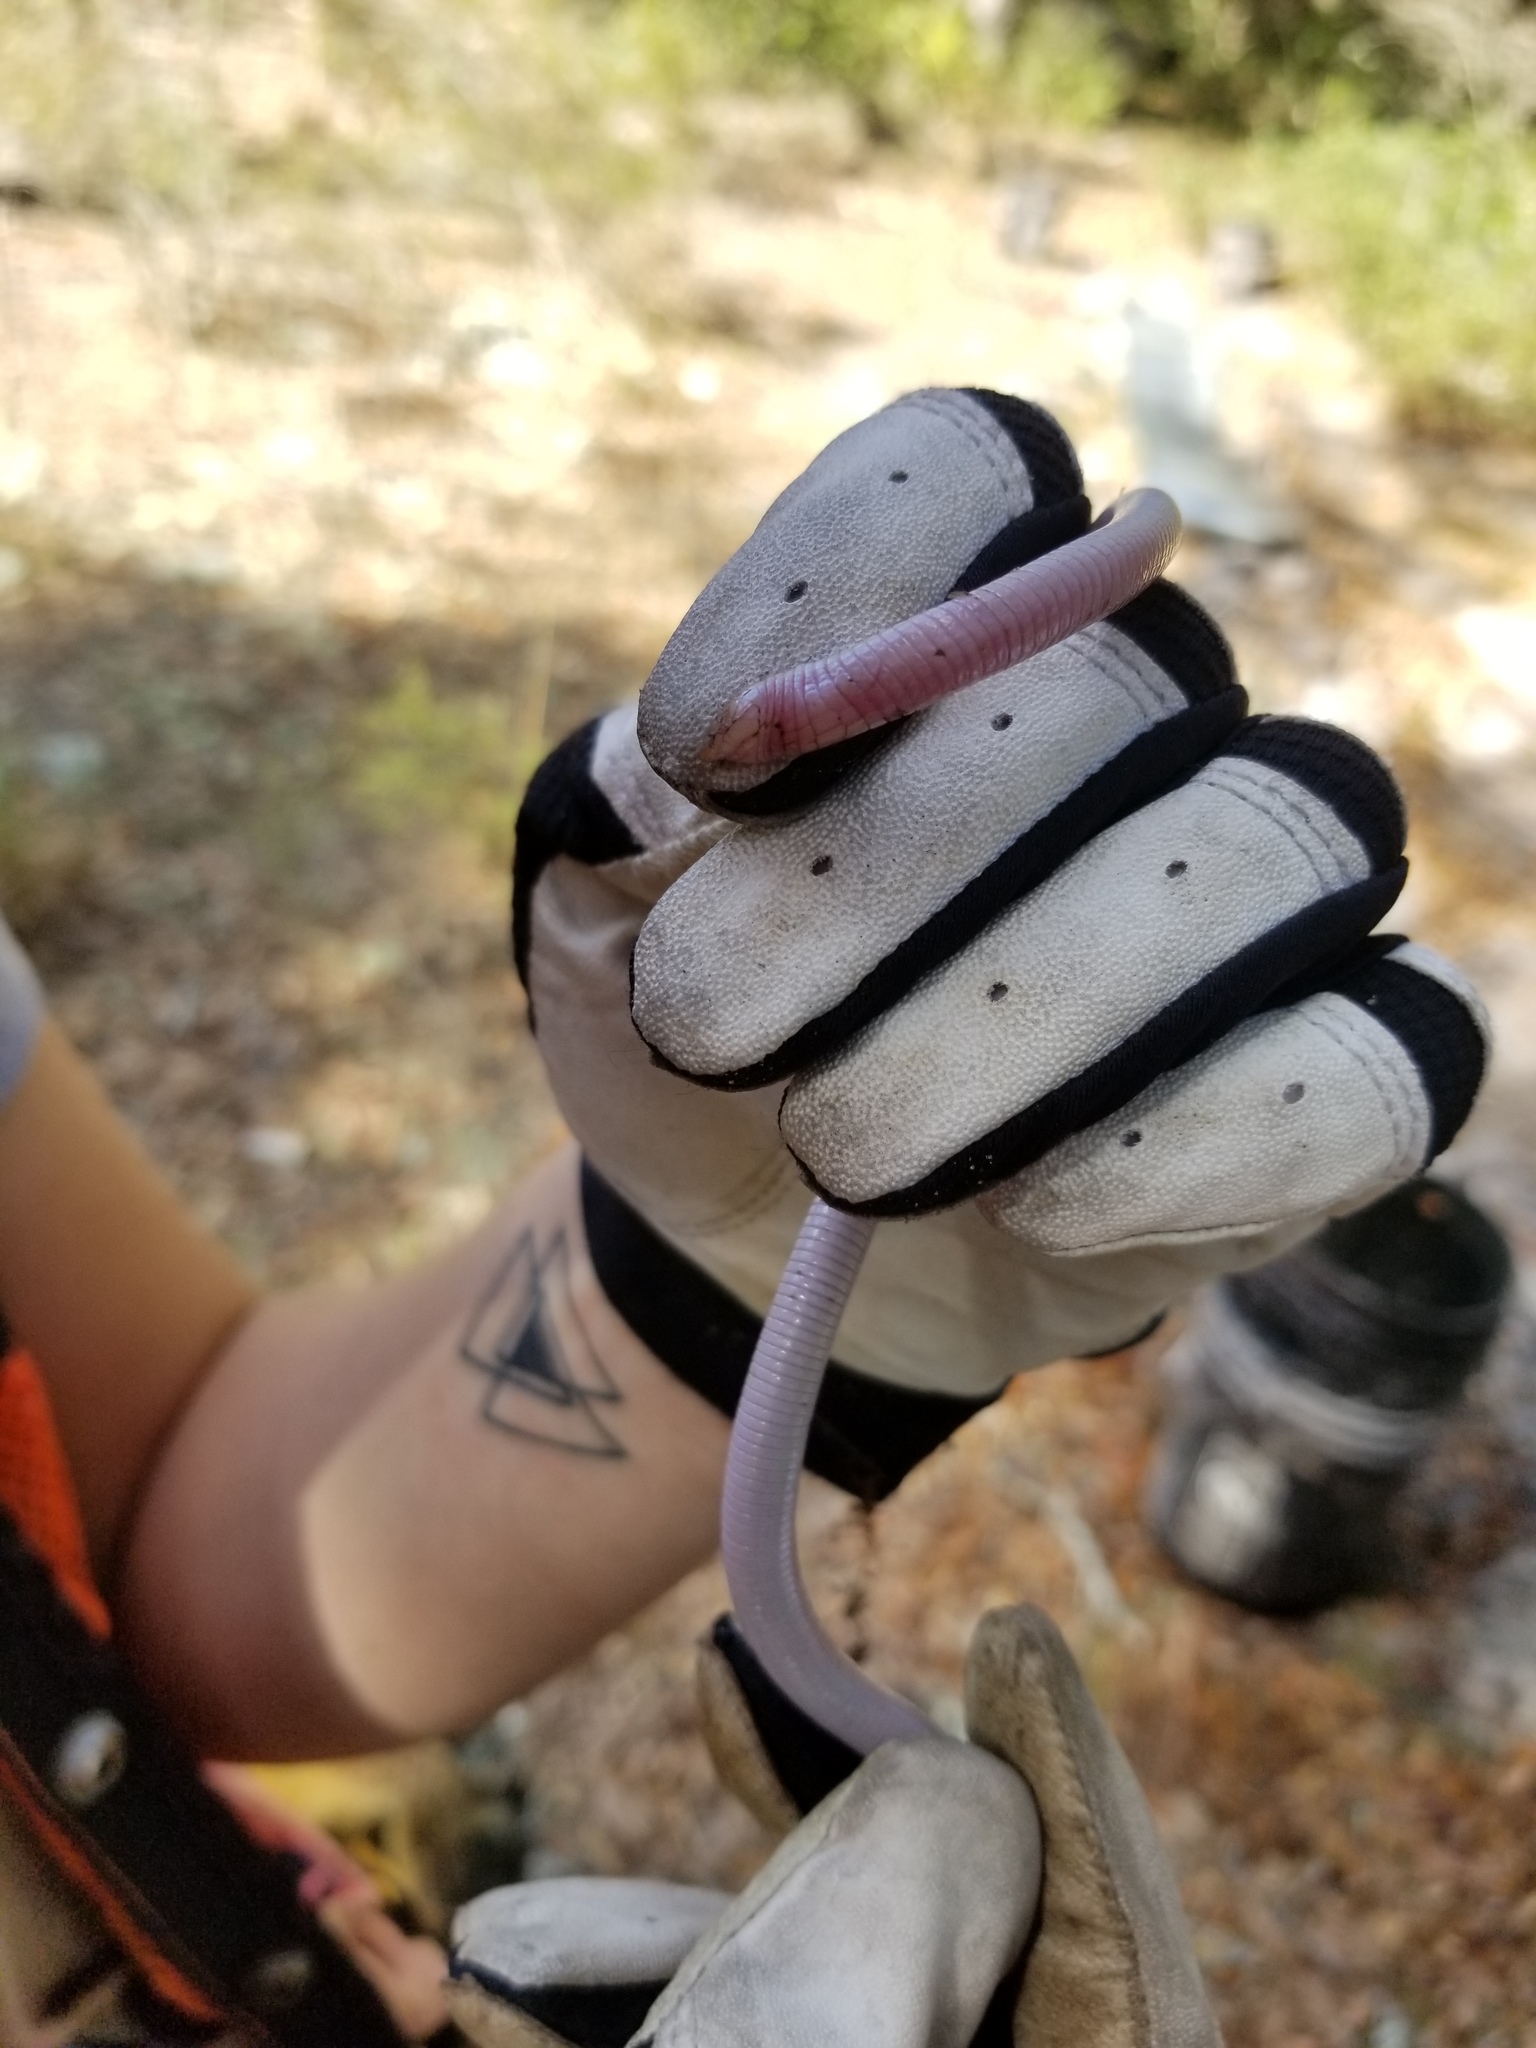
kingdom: Animalia
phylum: Chordata
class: Squamata
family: Rhineuridae
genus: Rhineura
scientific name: Rhineura floridana
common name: Florida worm lizard
